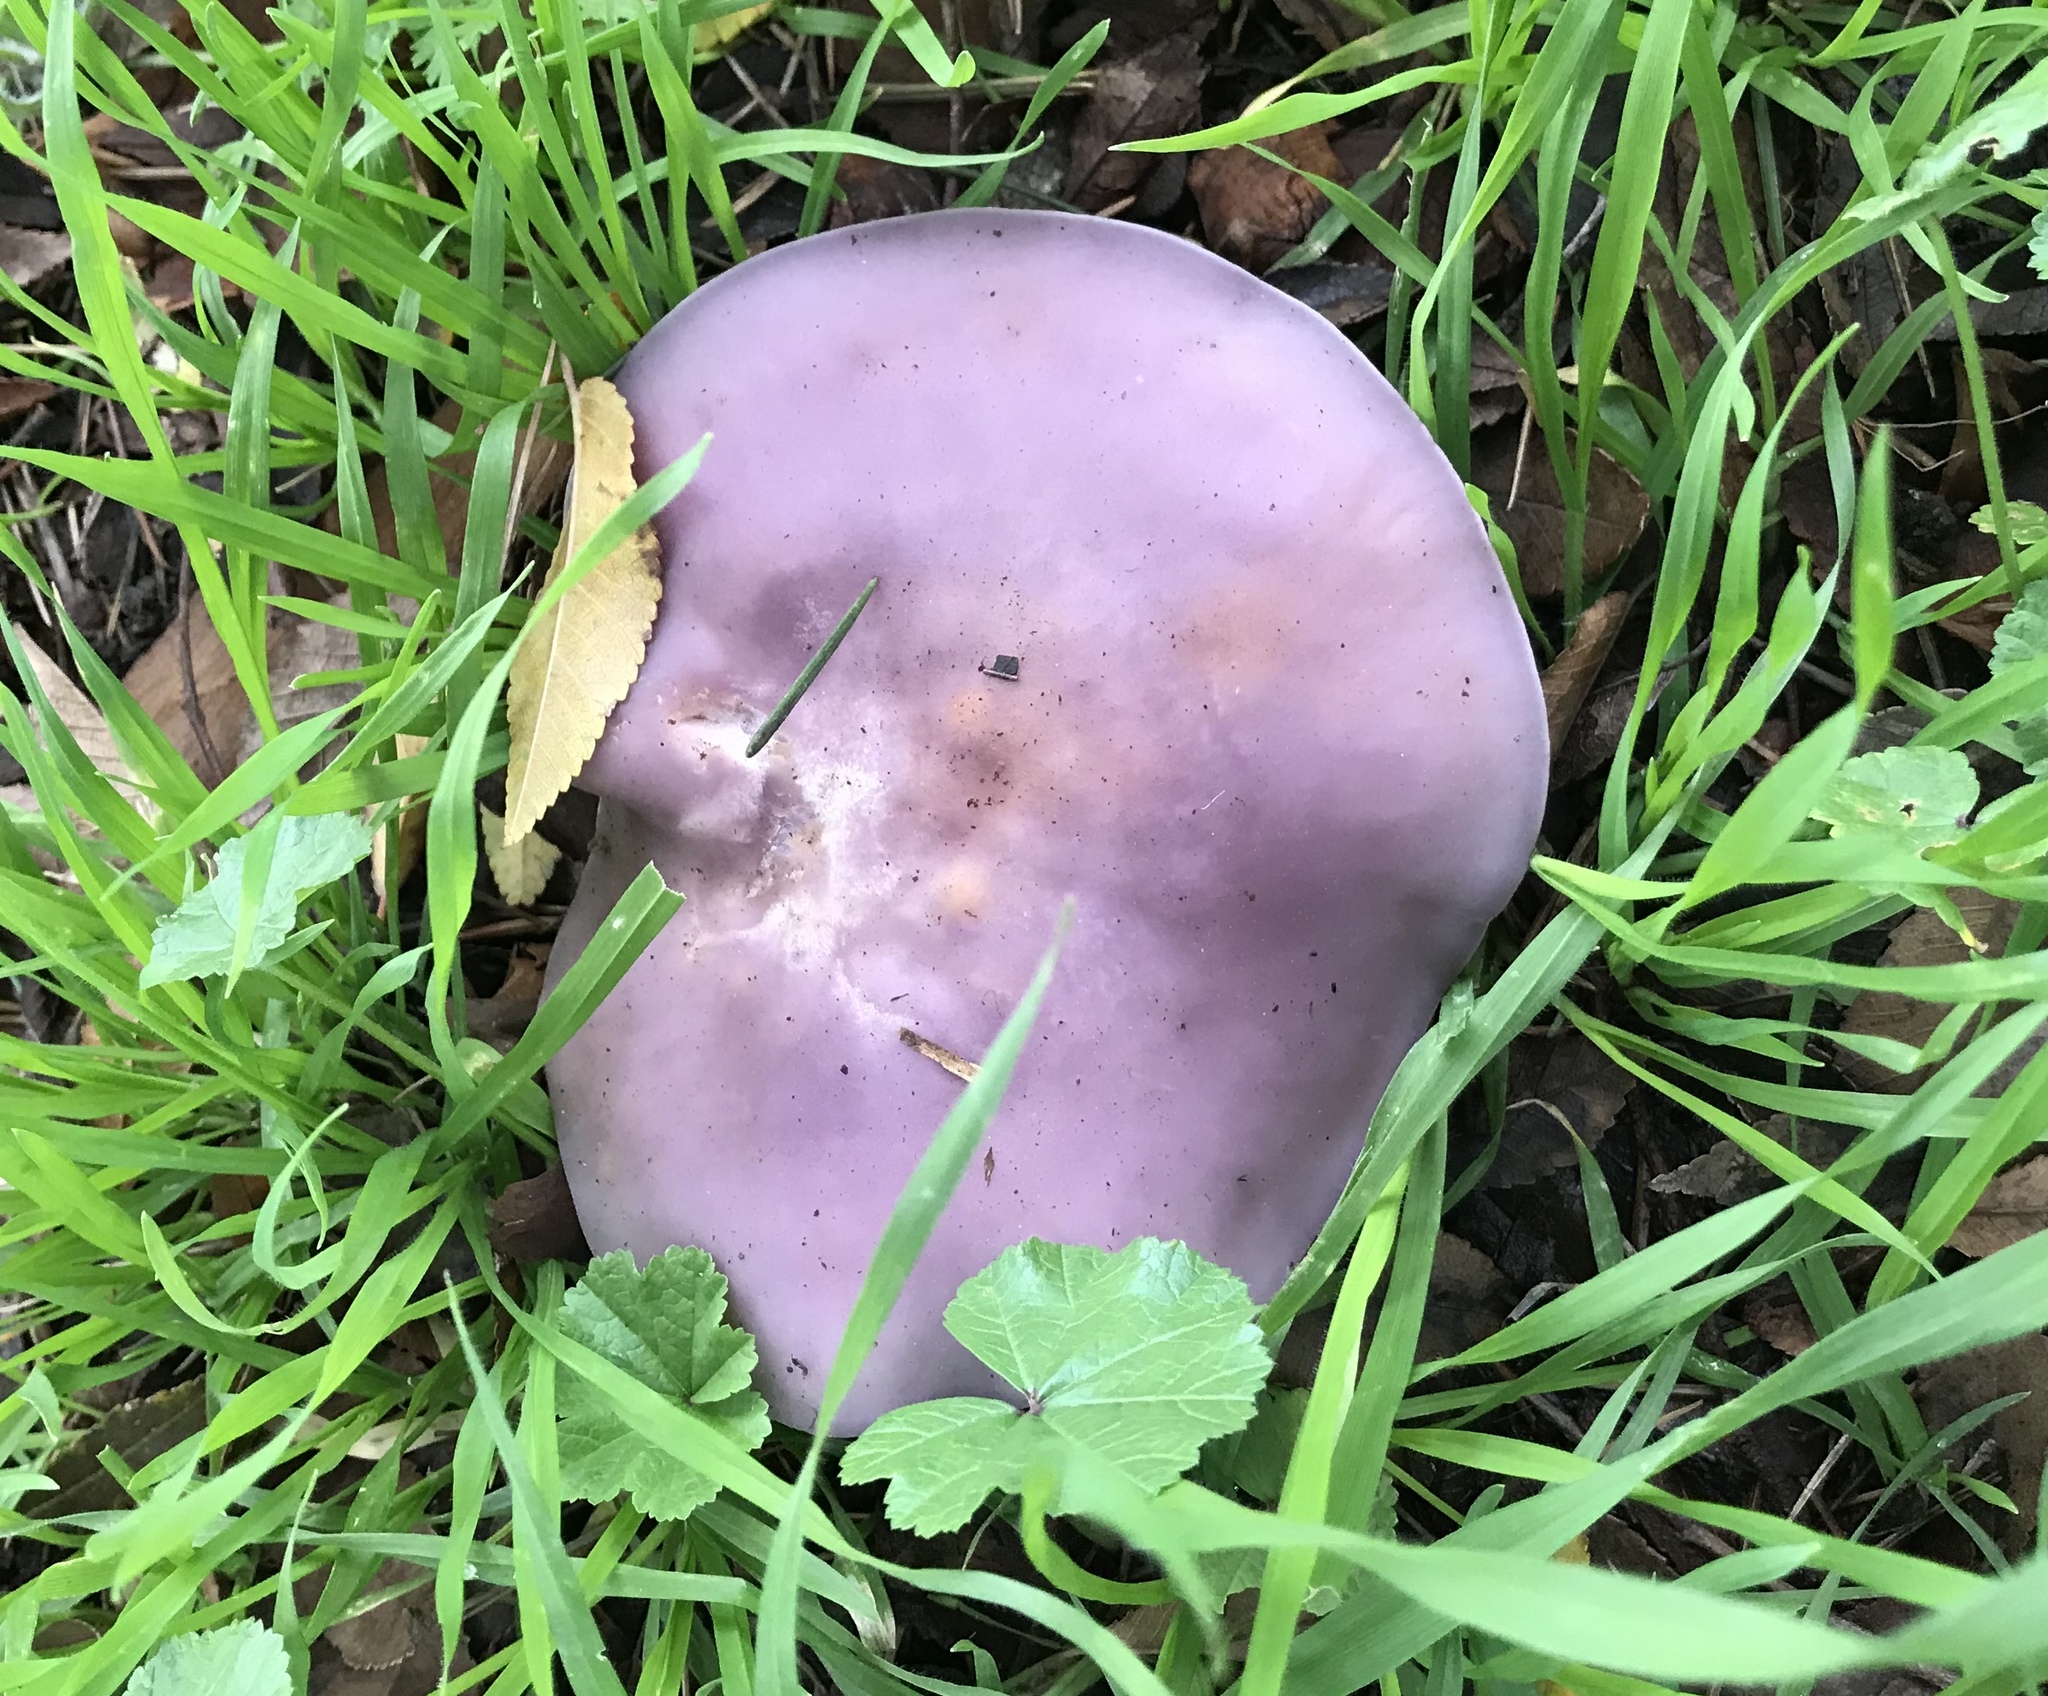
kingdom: Fungi
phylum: Basidiomycota
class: Agaricomycetes
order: Agaricales
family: Tricholomataceae
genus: Collybia
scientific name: Collybia
